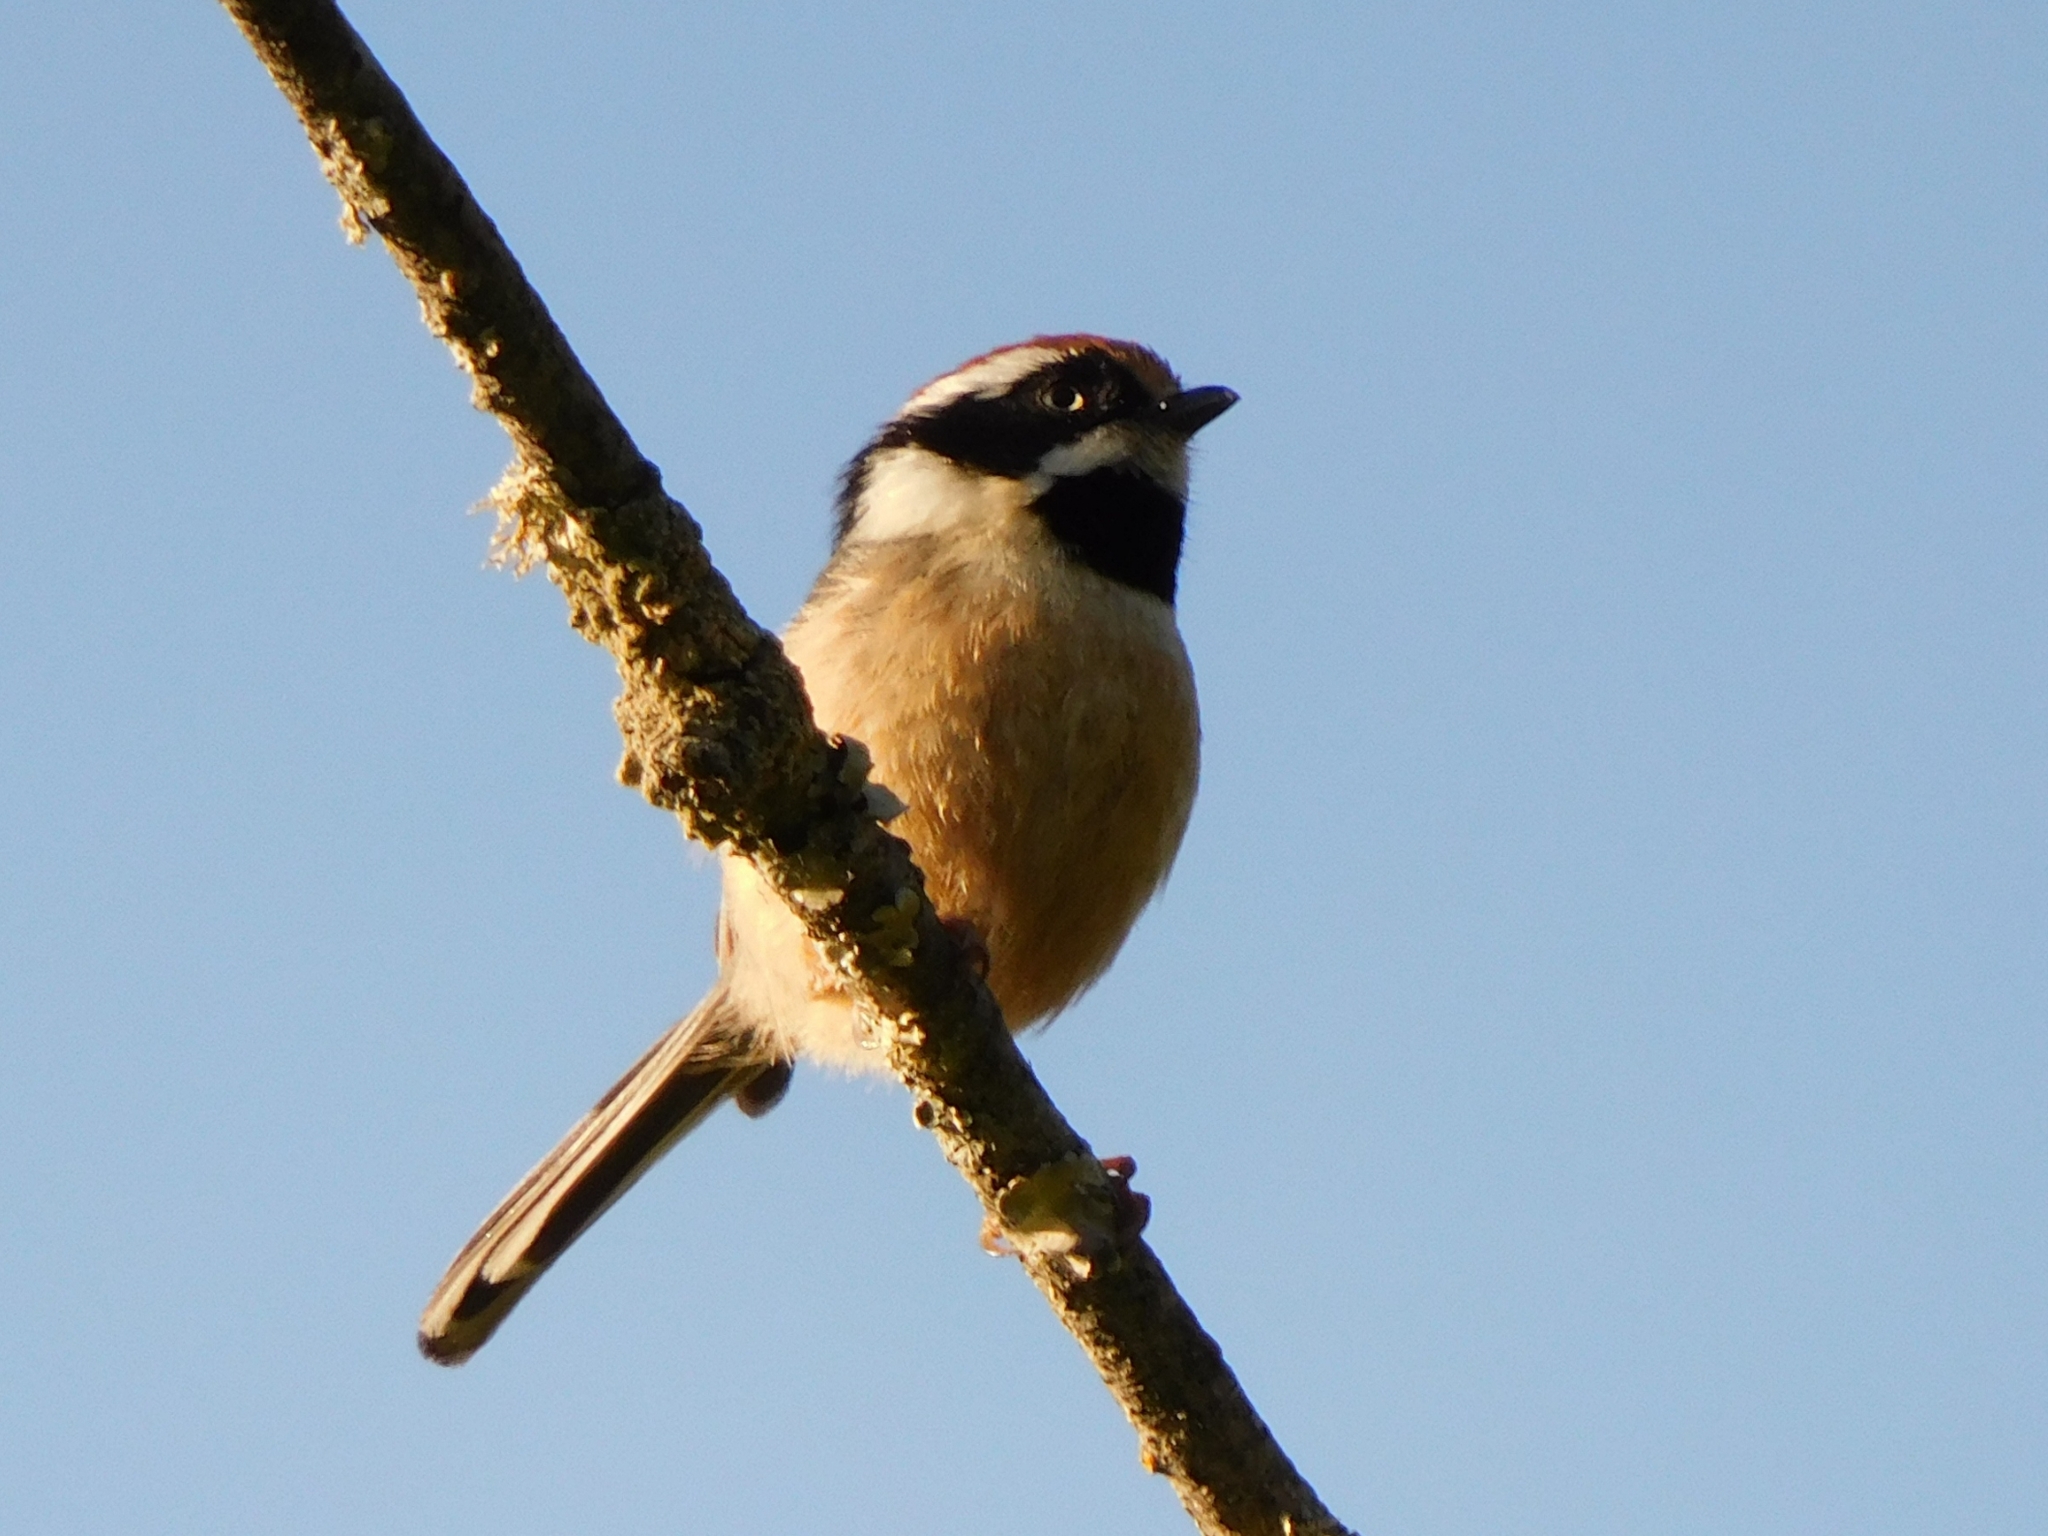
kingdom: Animalia
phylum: Chordata
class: Aves
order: Passeriformes
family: Aegithalidae
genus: Aegithalos
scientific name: Aegithalos concinnus
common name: Black-throated bushtit
